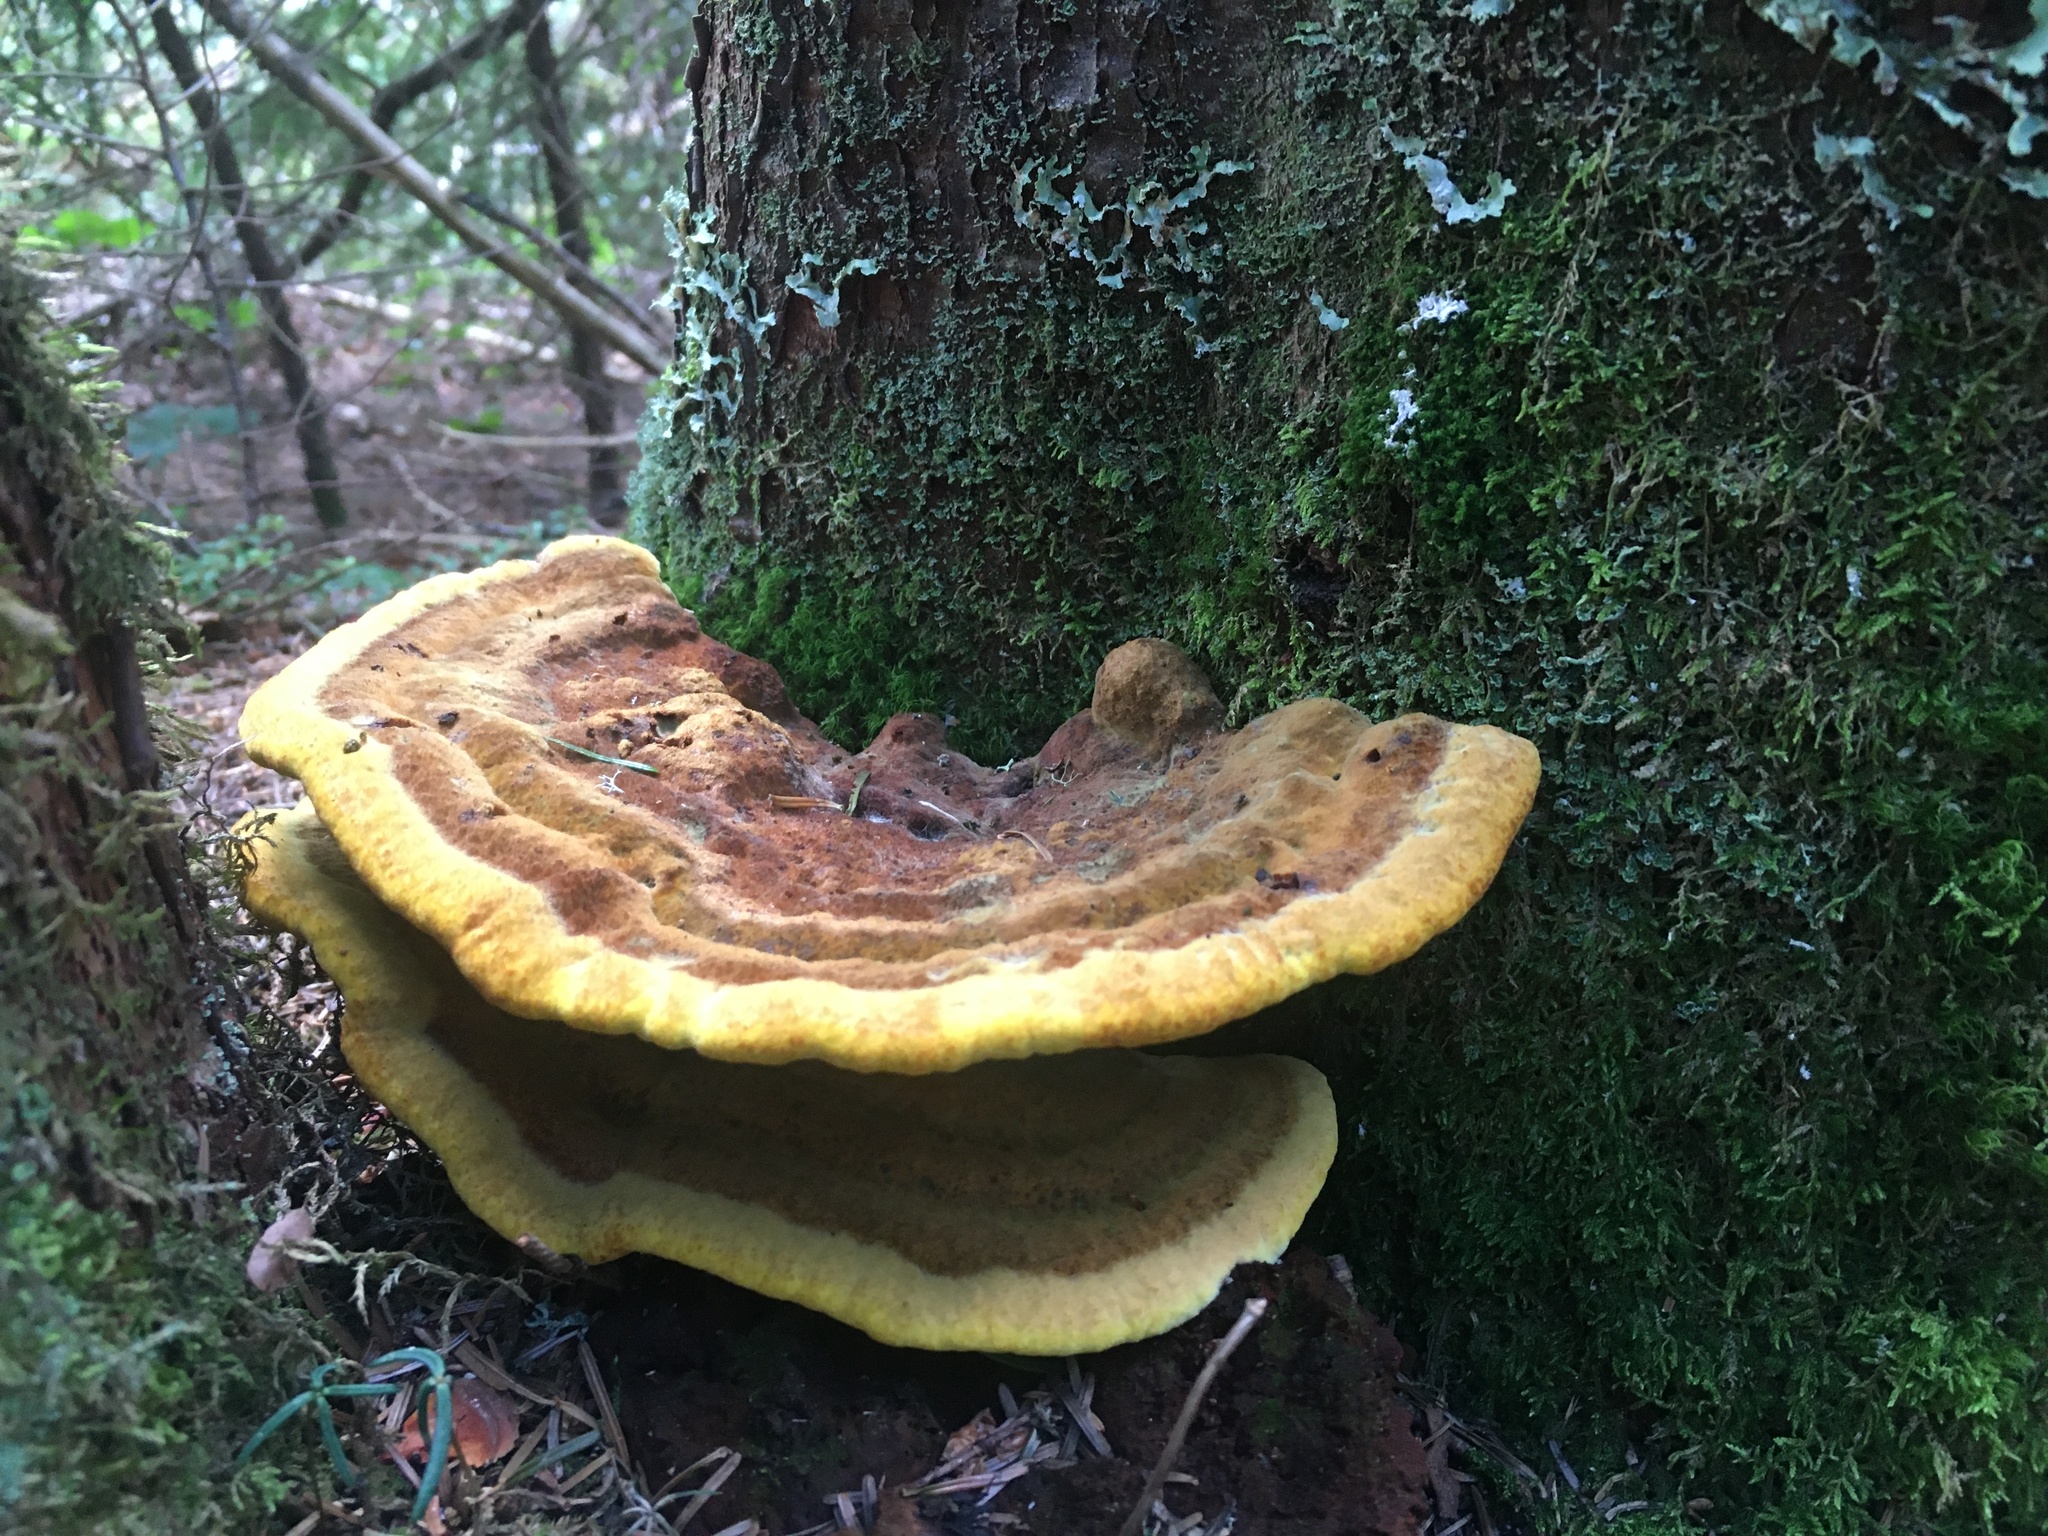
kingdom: Fungi
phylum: Basidiomycota
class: Agaricomycetes
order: Polyporales
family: Laetiporaceae
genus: Phaeolus
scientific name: Phaeolus schweinitzii
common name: Dyer's mazegill
